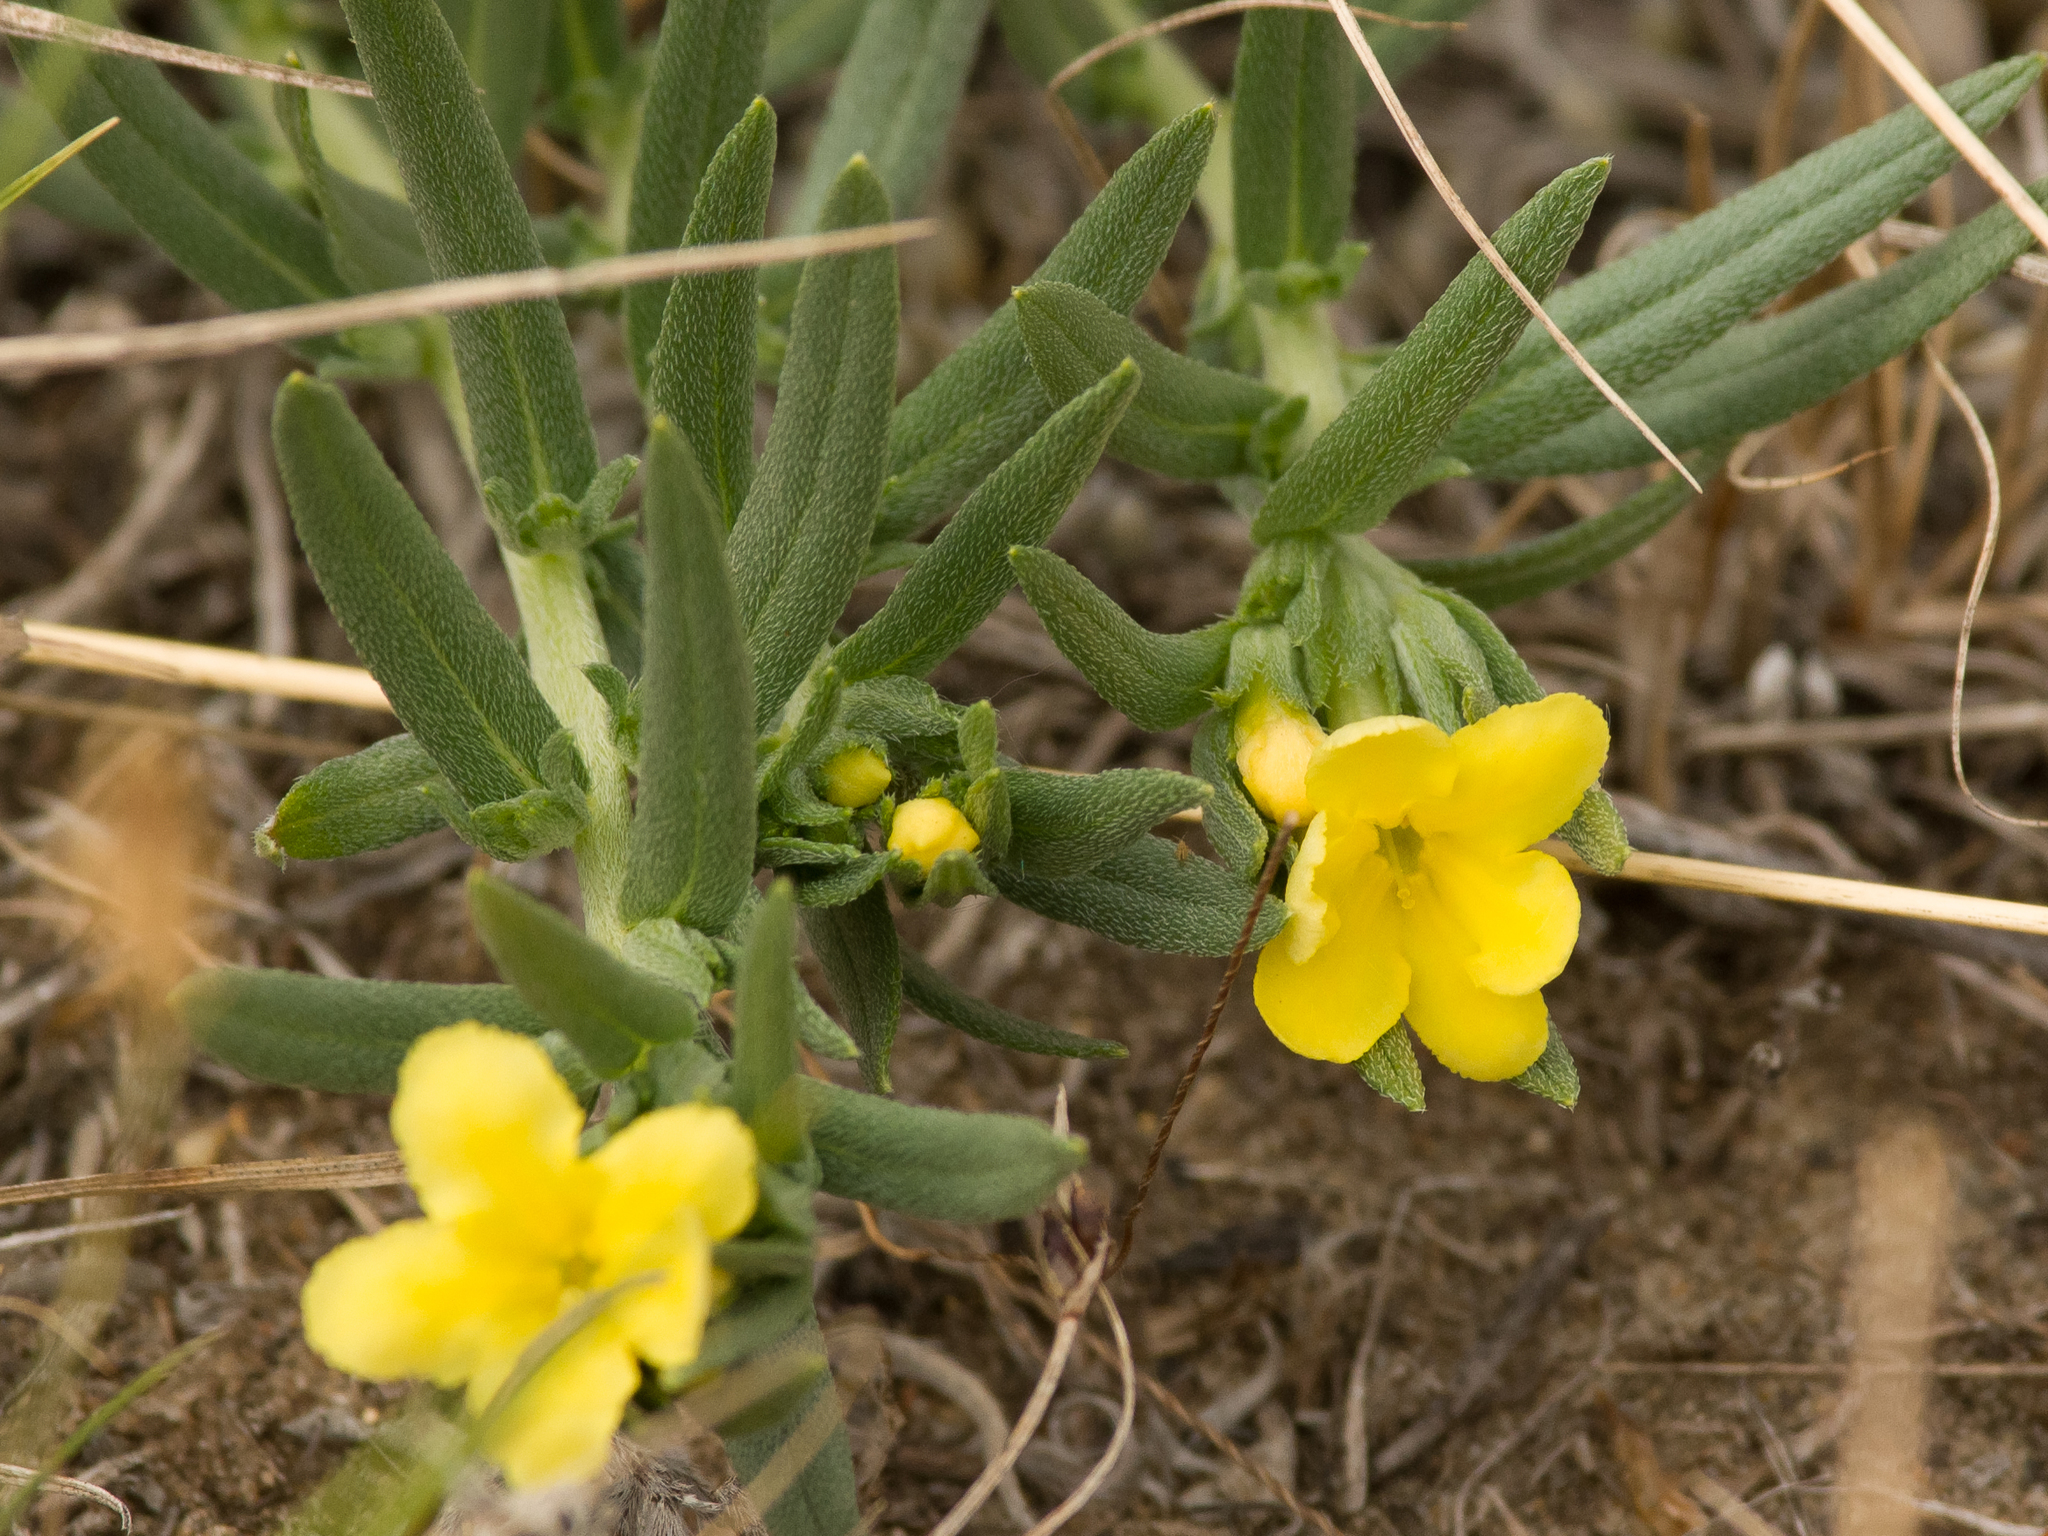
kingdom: Plantae
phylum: Tracheophyta
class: Magnoliopsida
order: Boraginales
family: Boraginaceae
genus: Lithospermum
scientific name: Lithospermum incisum
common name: Fringed gromwell
